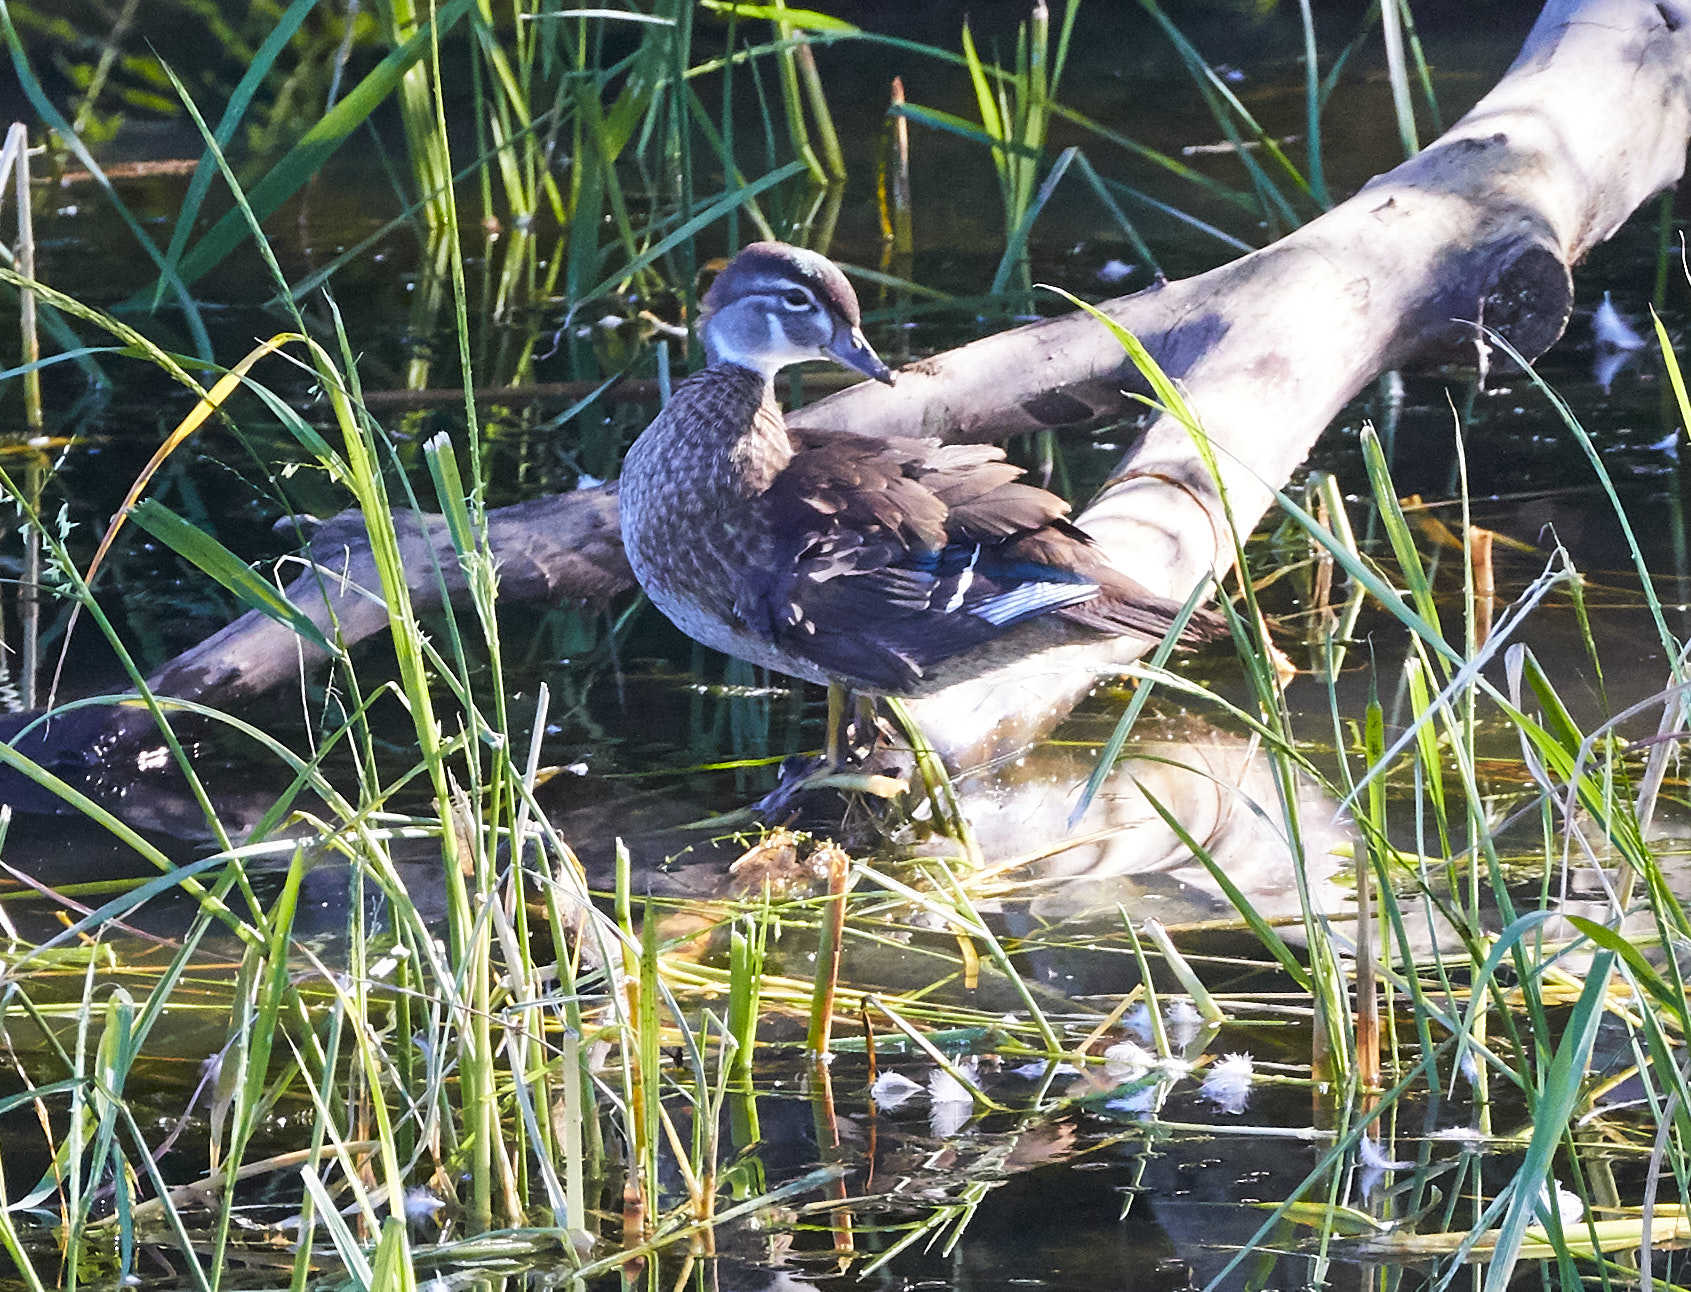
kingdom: Animalia
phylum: Chordata
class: Aves
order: Anseriformes
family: Anatidae
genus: Aix
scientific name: Aix sponsa
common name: Wood duck
